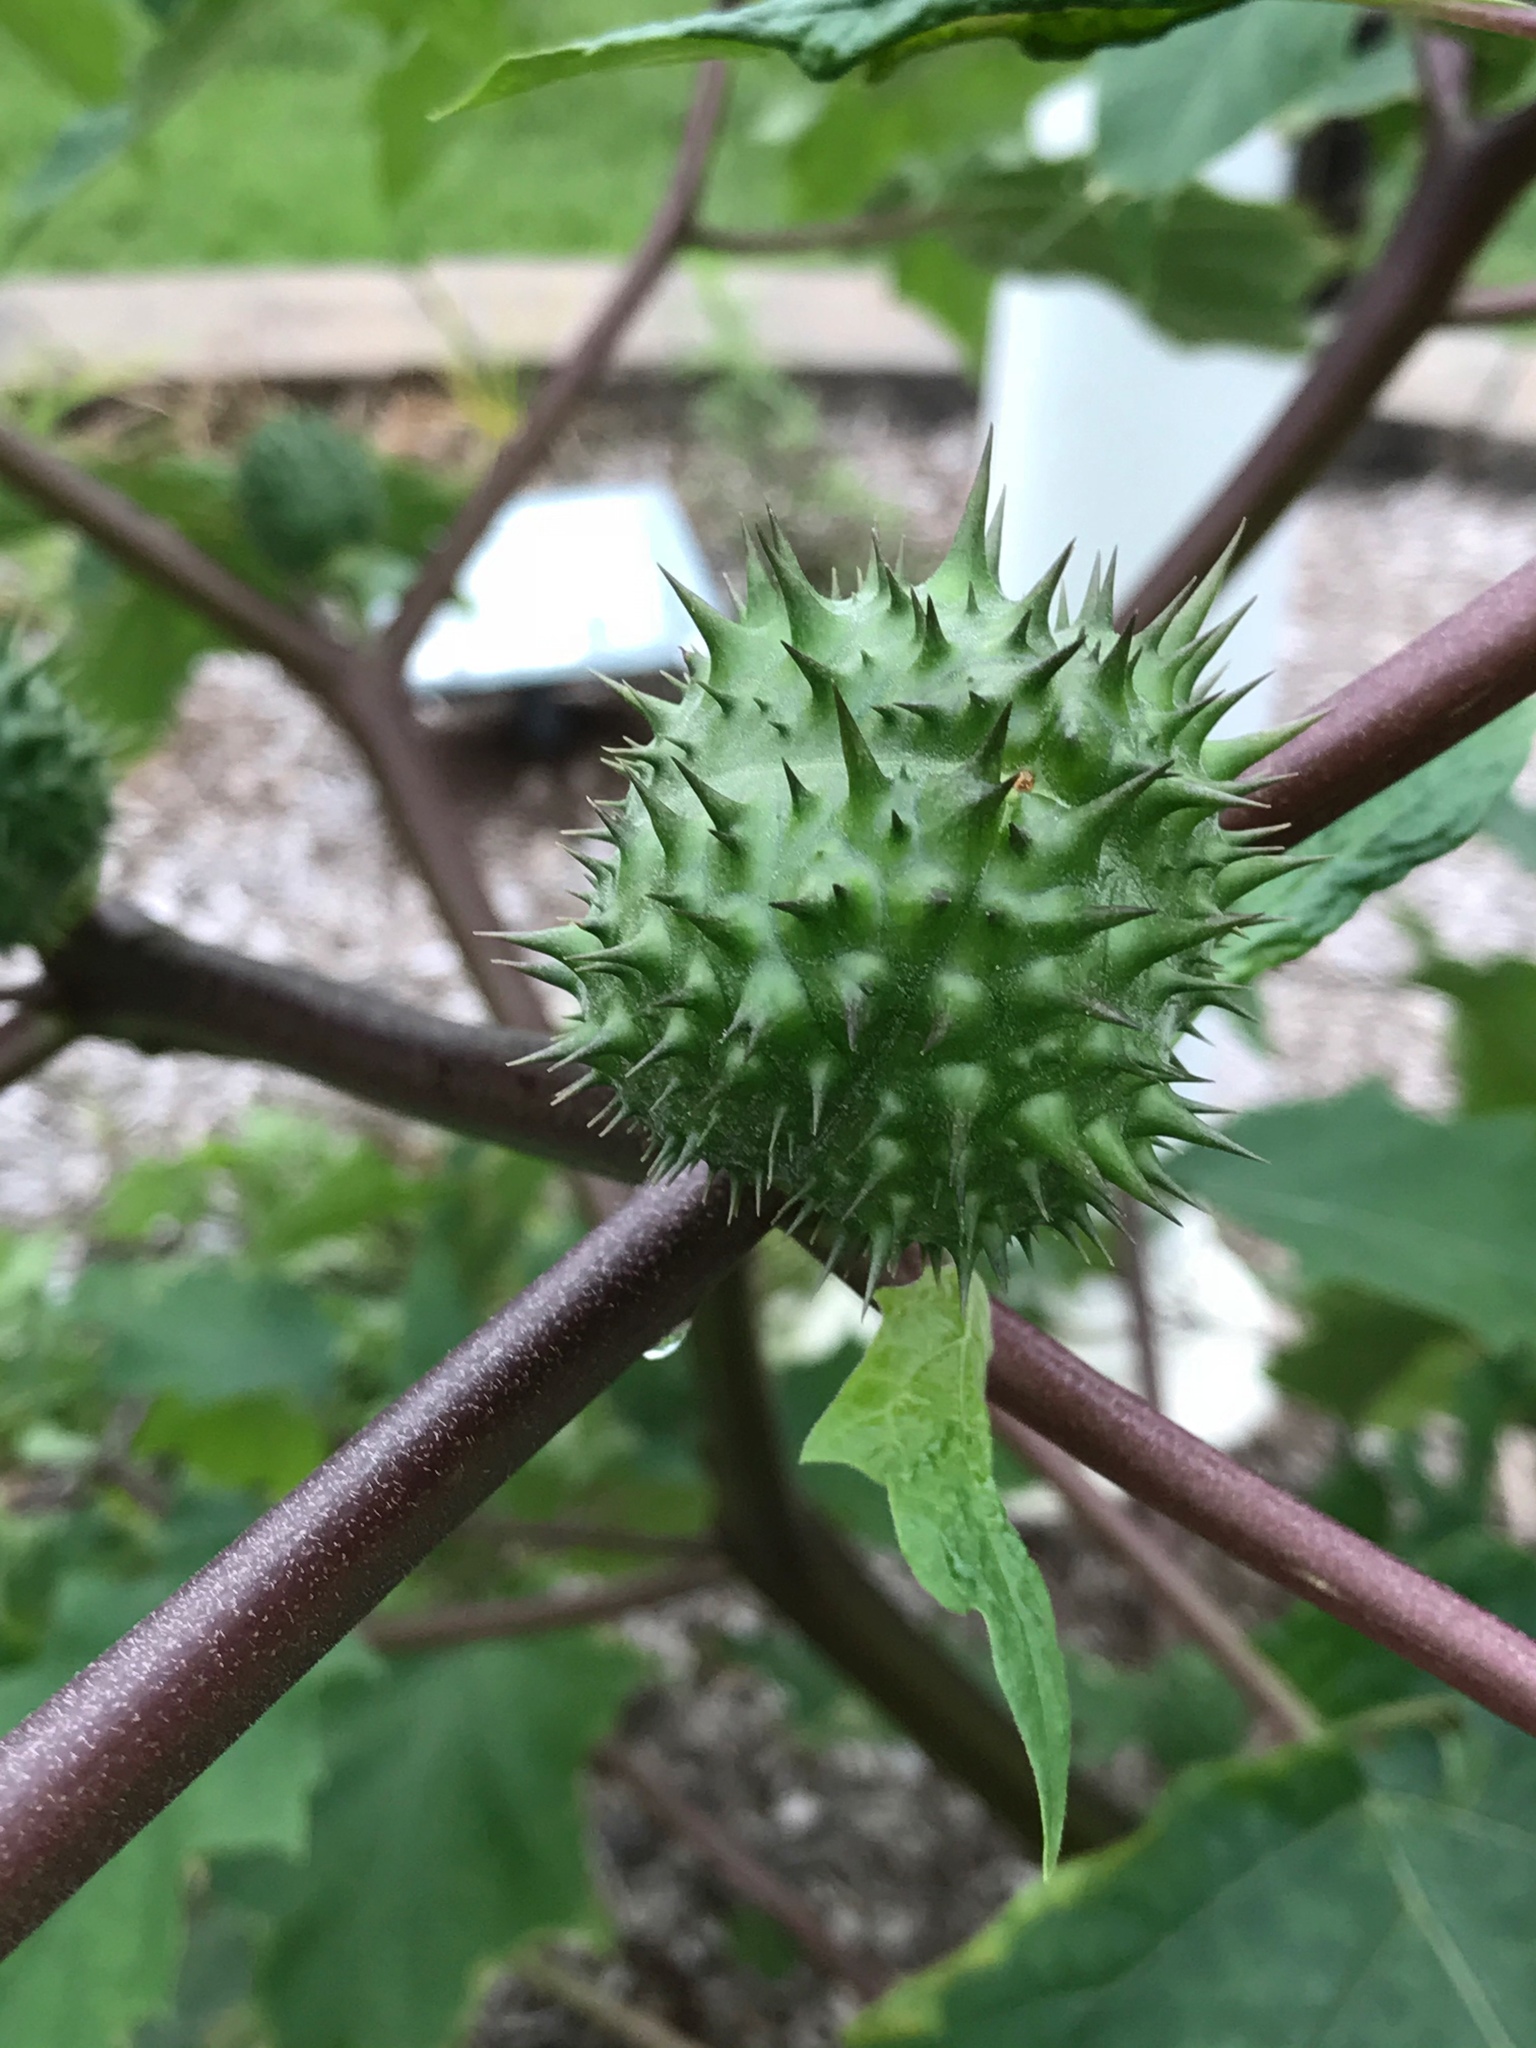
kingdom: Plantae
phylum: Tracheophyta
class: Magnoliopsida
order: Solanales
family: Solanaceae
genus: Datura
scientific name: Datura stramonium
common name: Thorn-apple
